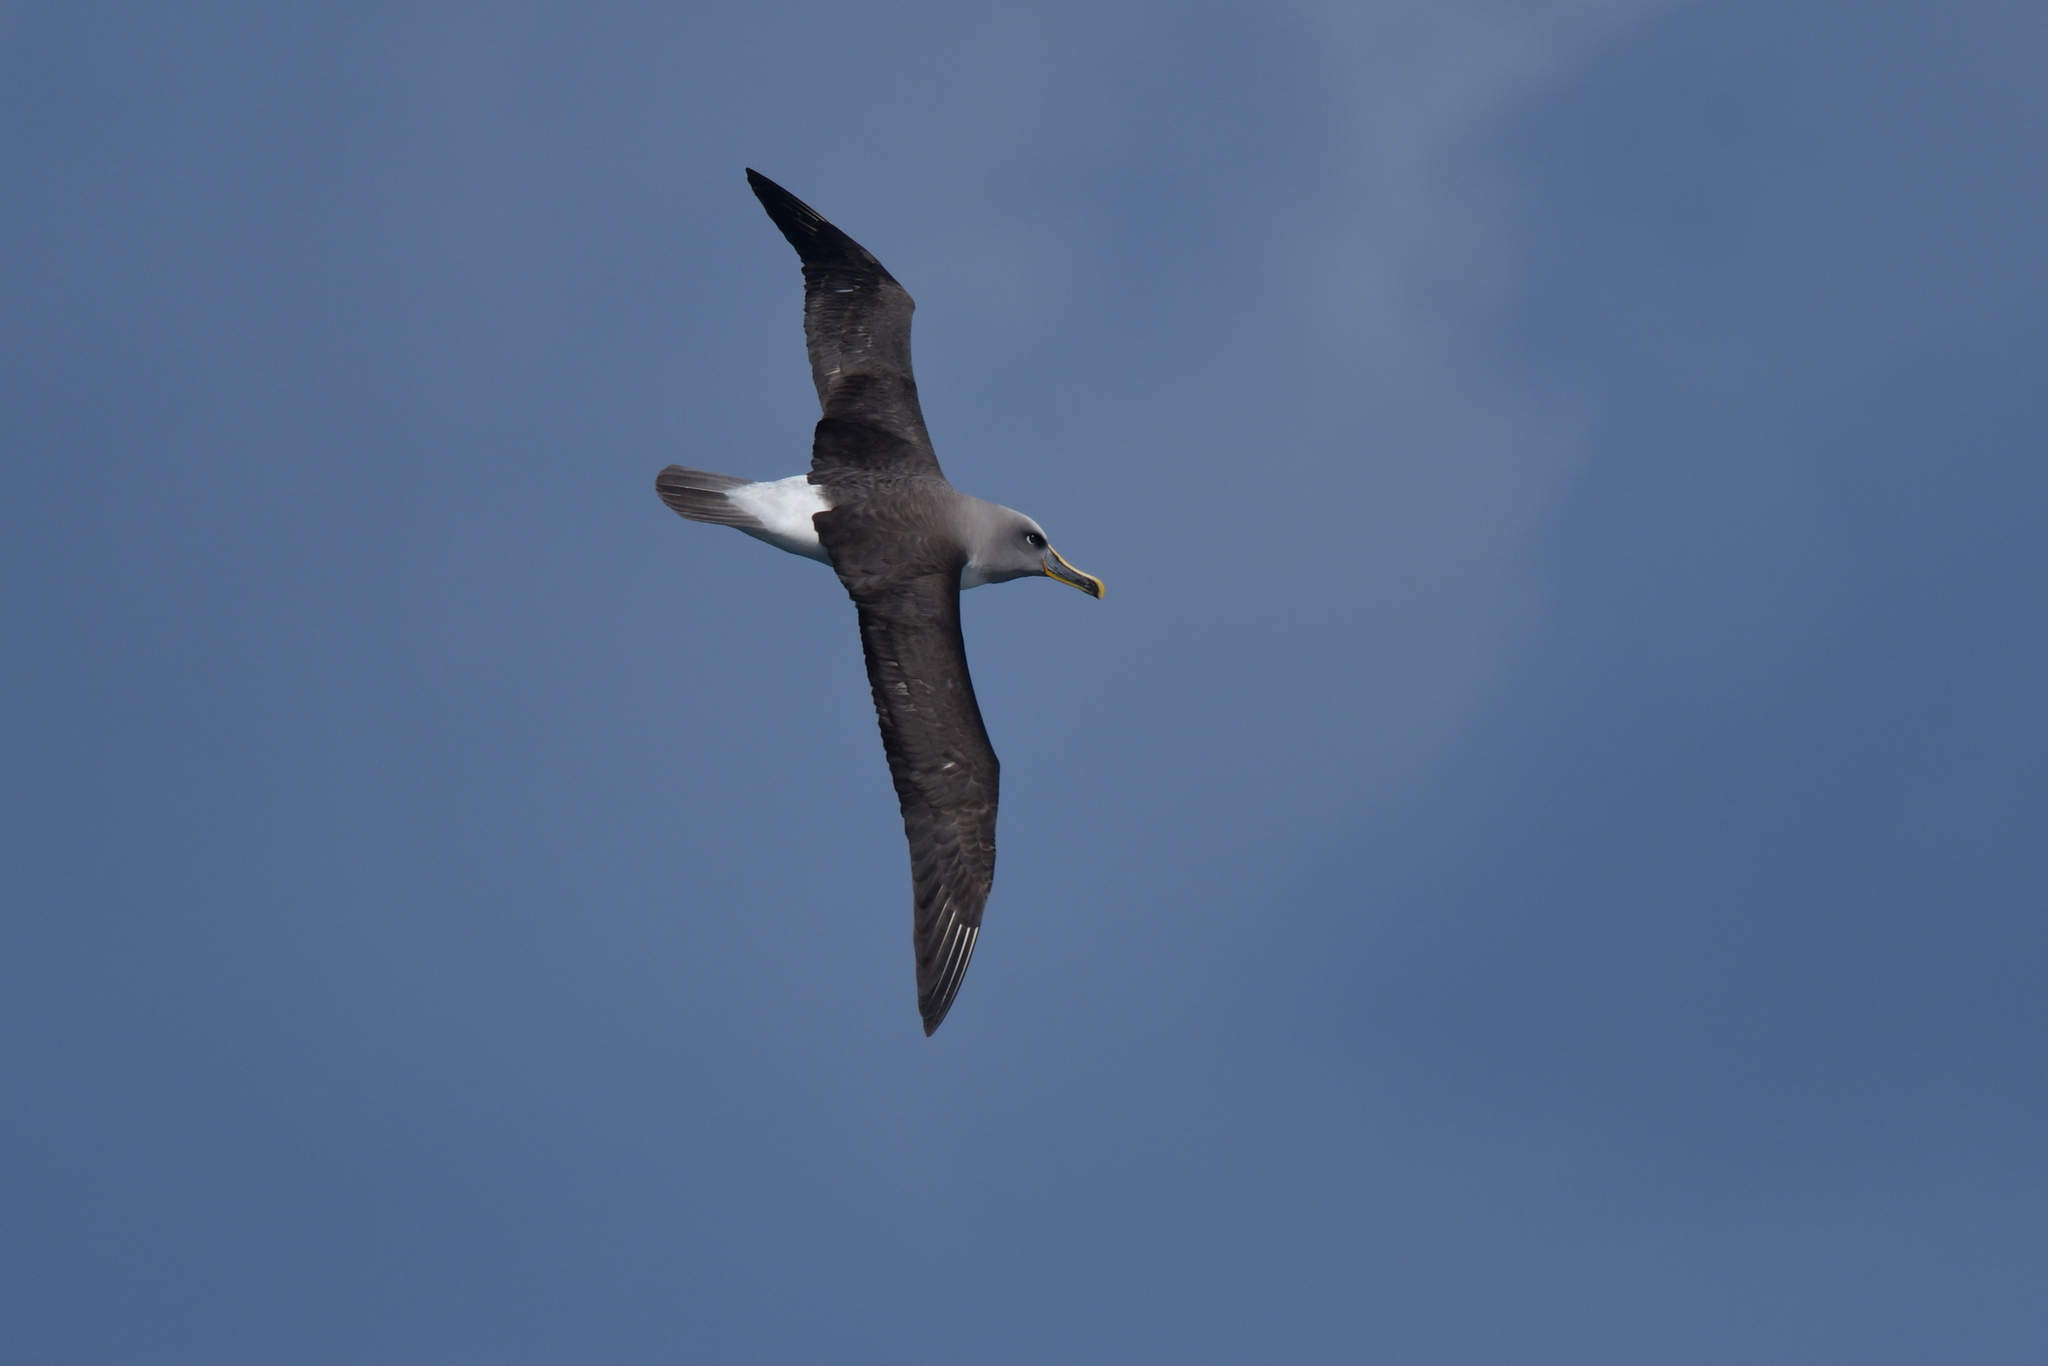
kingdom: Animalia
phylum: Chordata
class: Aves
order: Procellariiformes
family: Diomedeidae
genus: Thalassarche
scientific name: Thalassarche bulleri
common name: Buller's albatross
